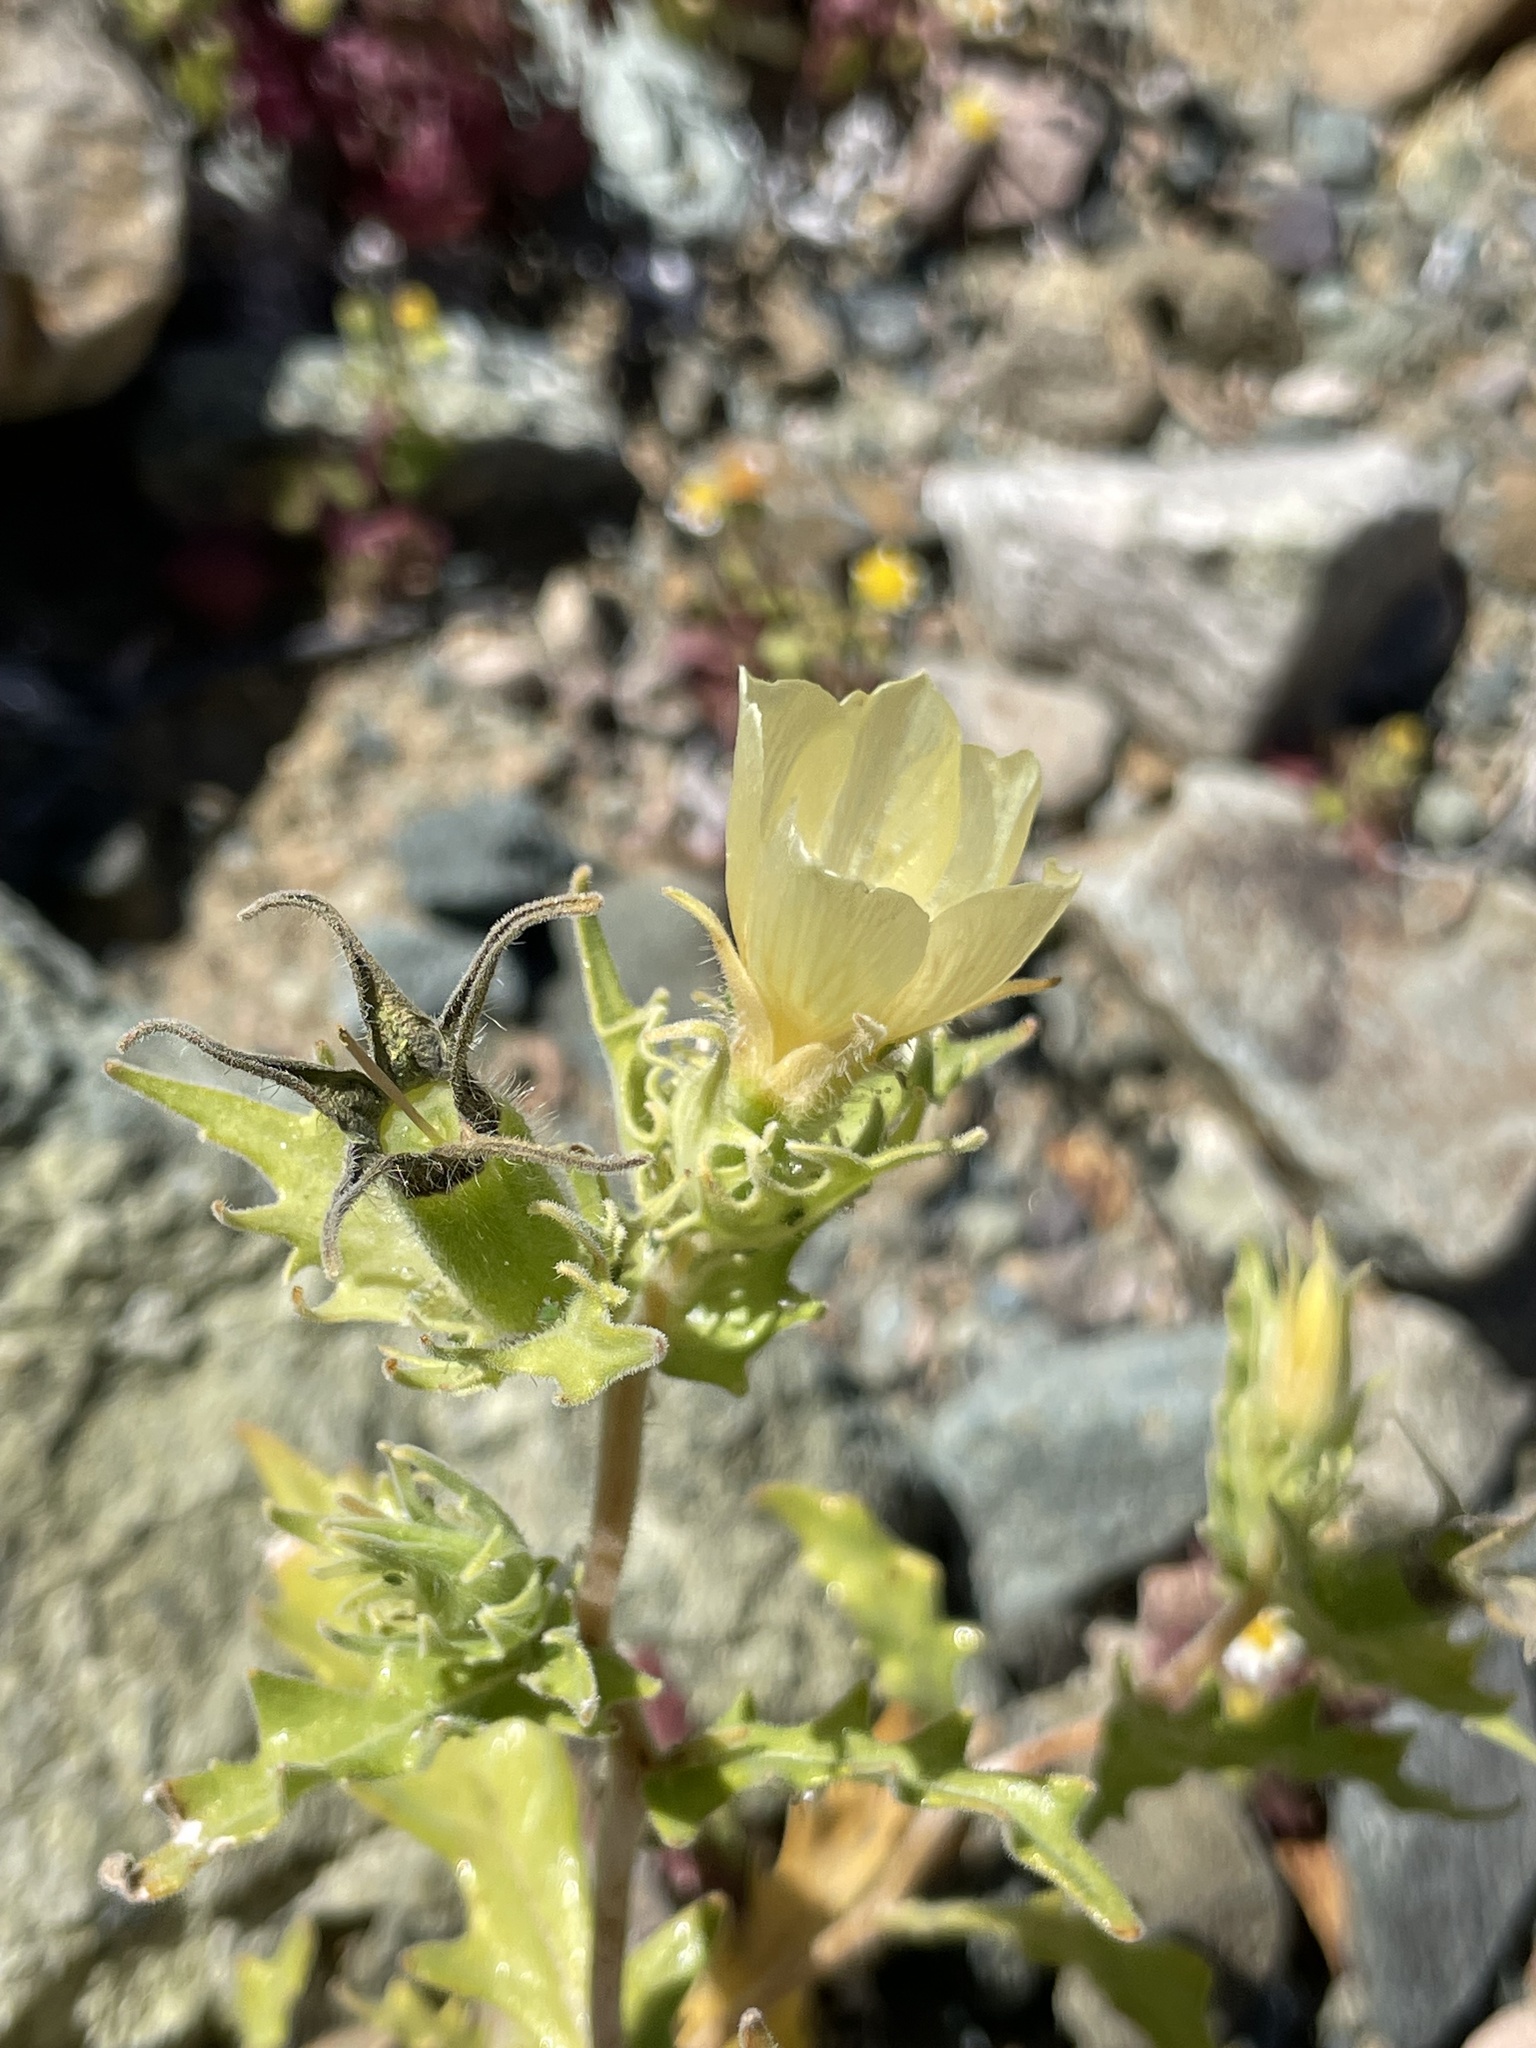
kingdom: Plantae
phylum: Tracheophyta
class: Magnoliopsida
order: Cornales
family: Loasaceae
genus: Mentzelia
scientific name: Mentzelia nesiotes
